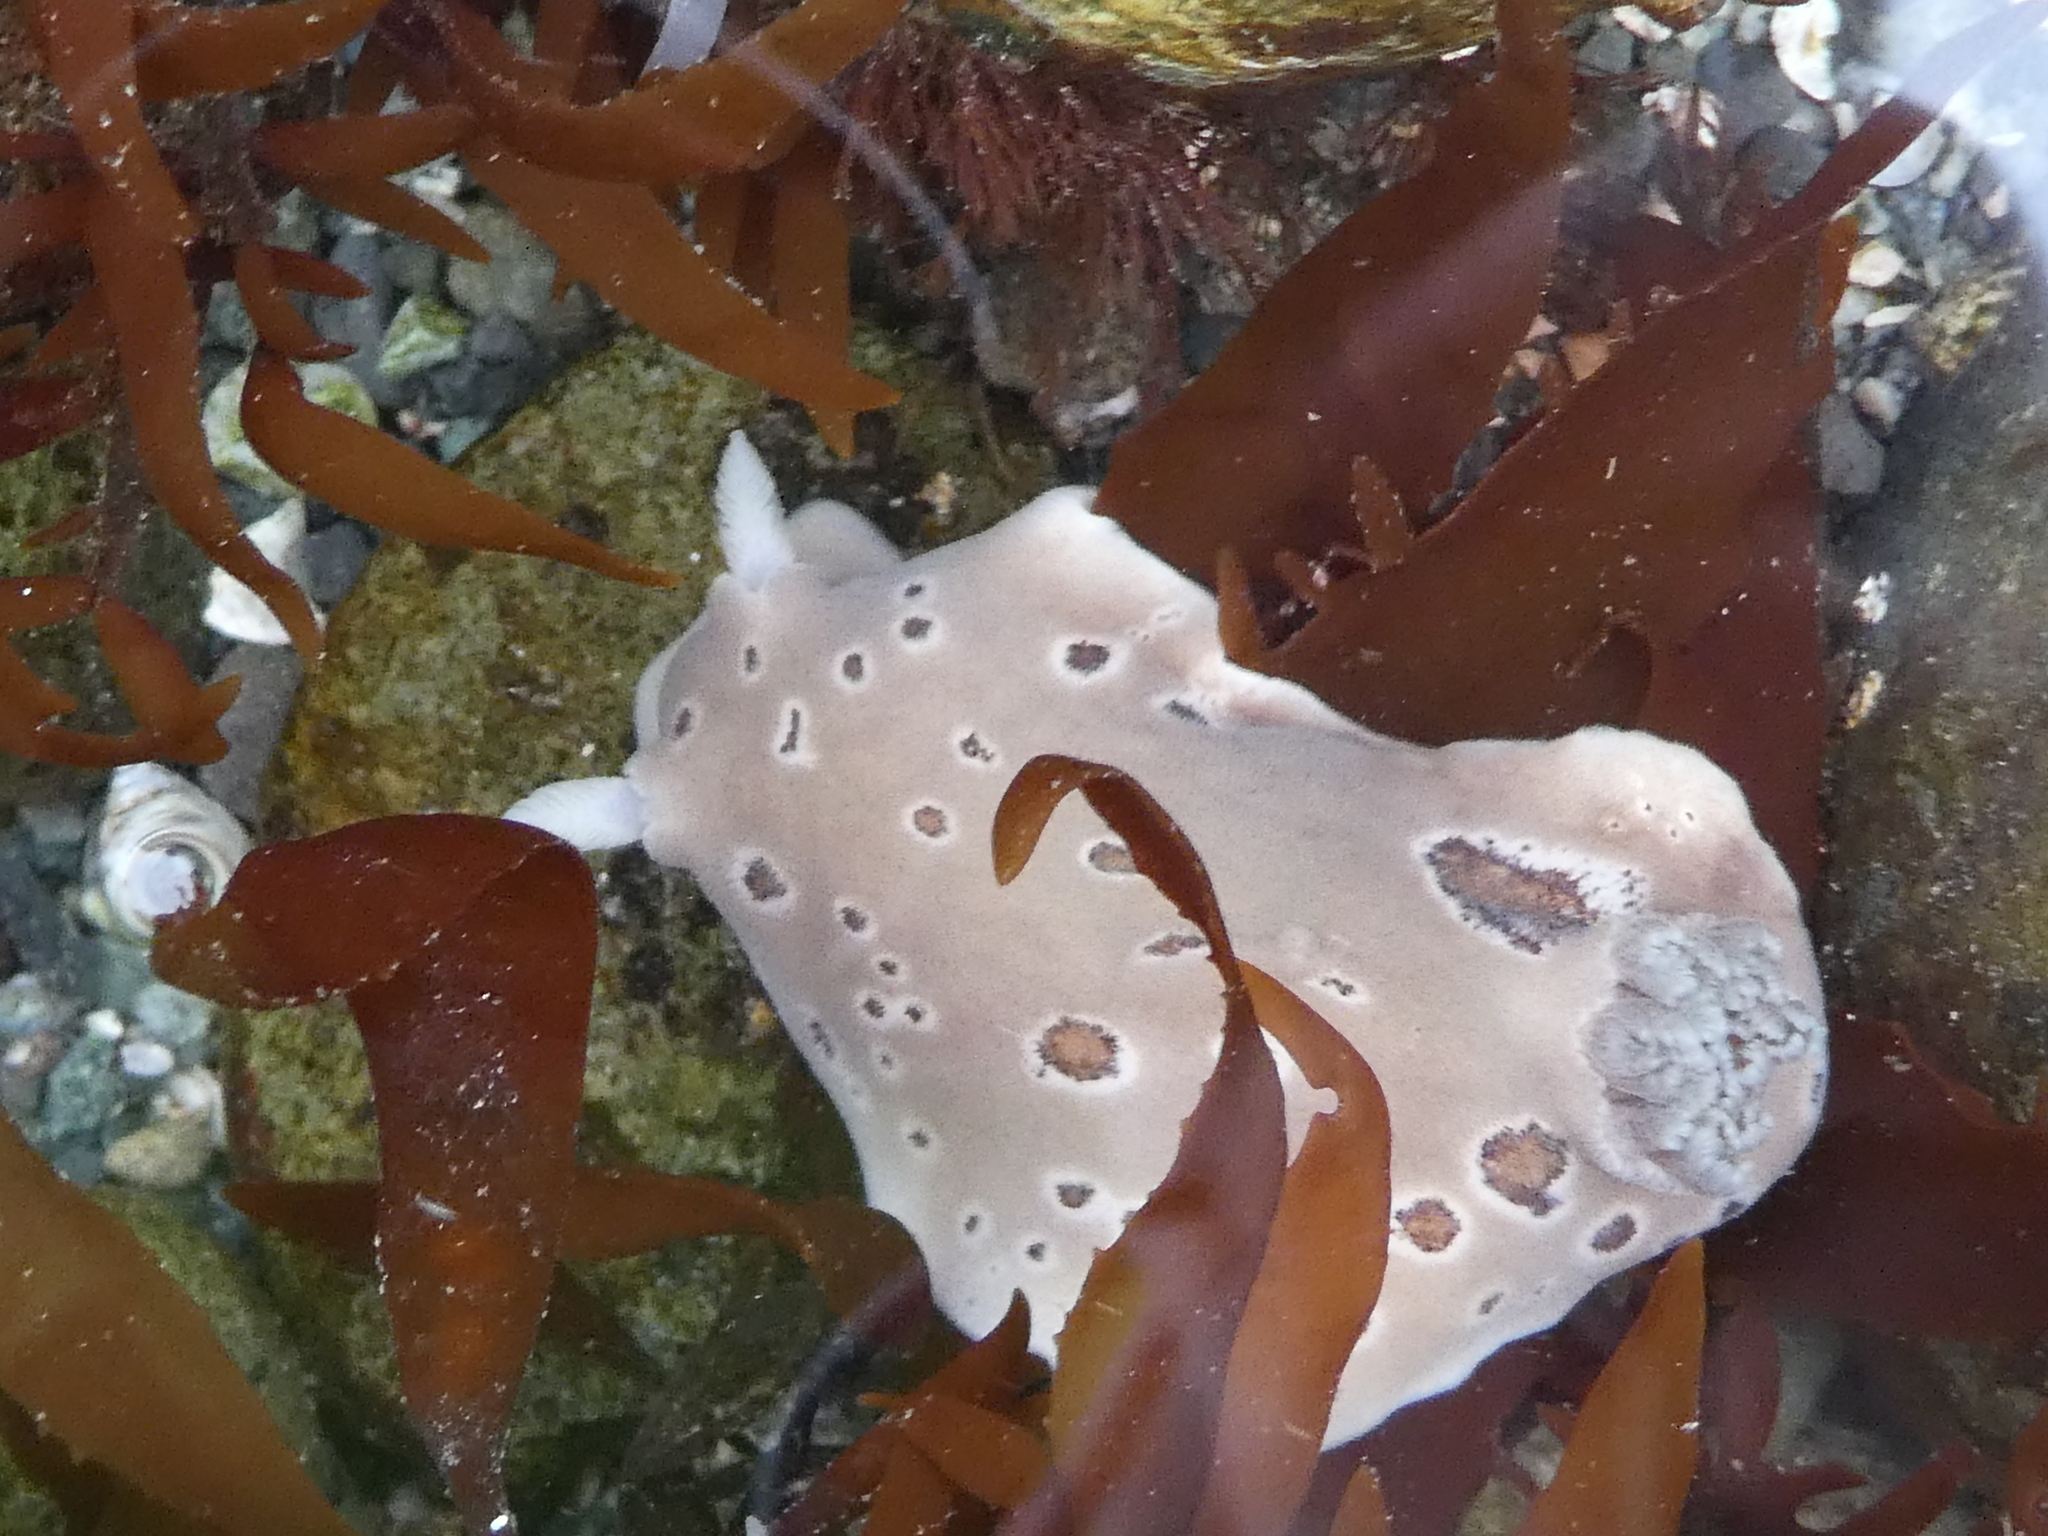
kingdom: Animalia
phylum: Mollusca
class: Gastropoda
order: Nudibranchia
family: Discodorididae
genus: Diaulula
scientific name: Diaulula odonoghuei
